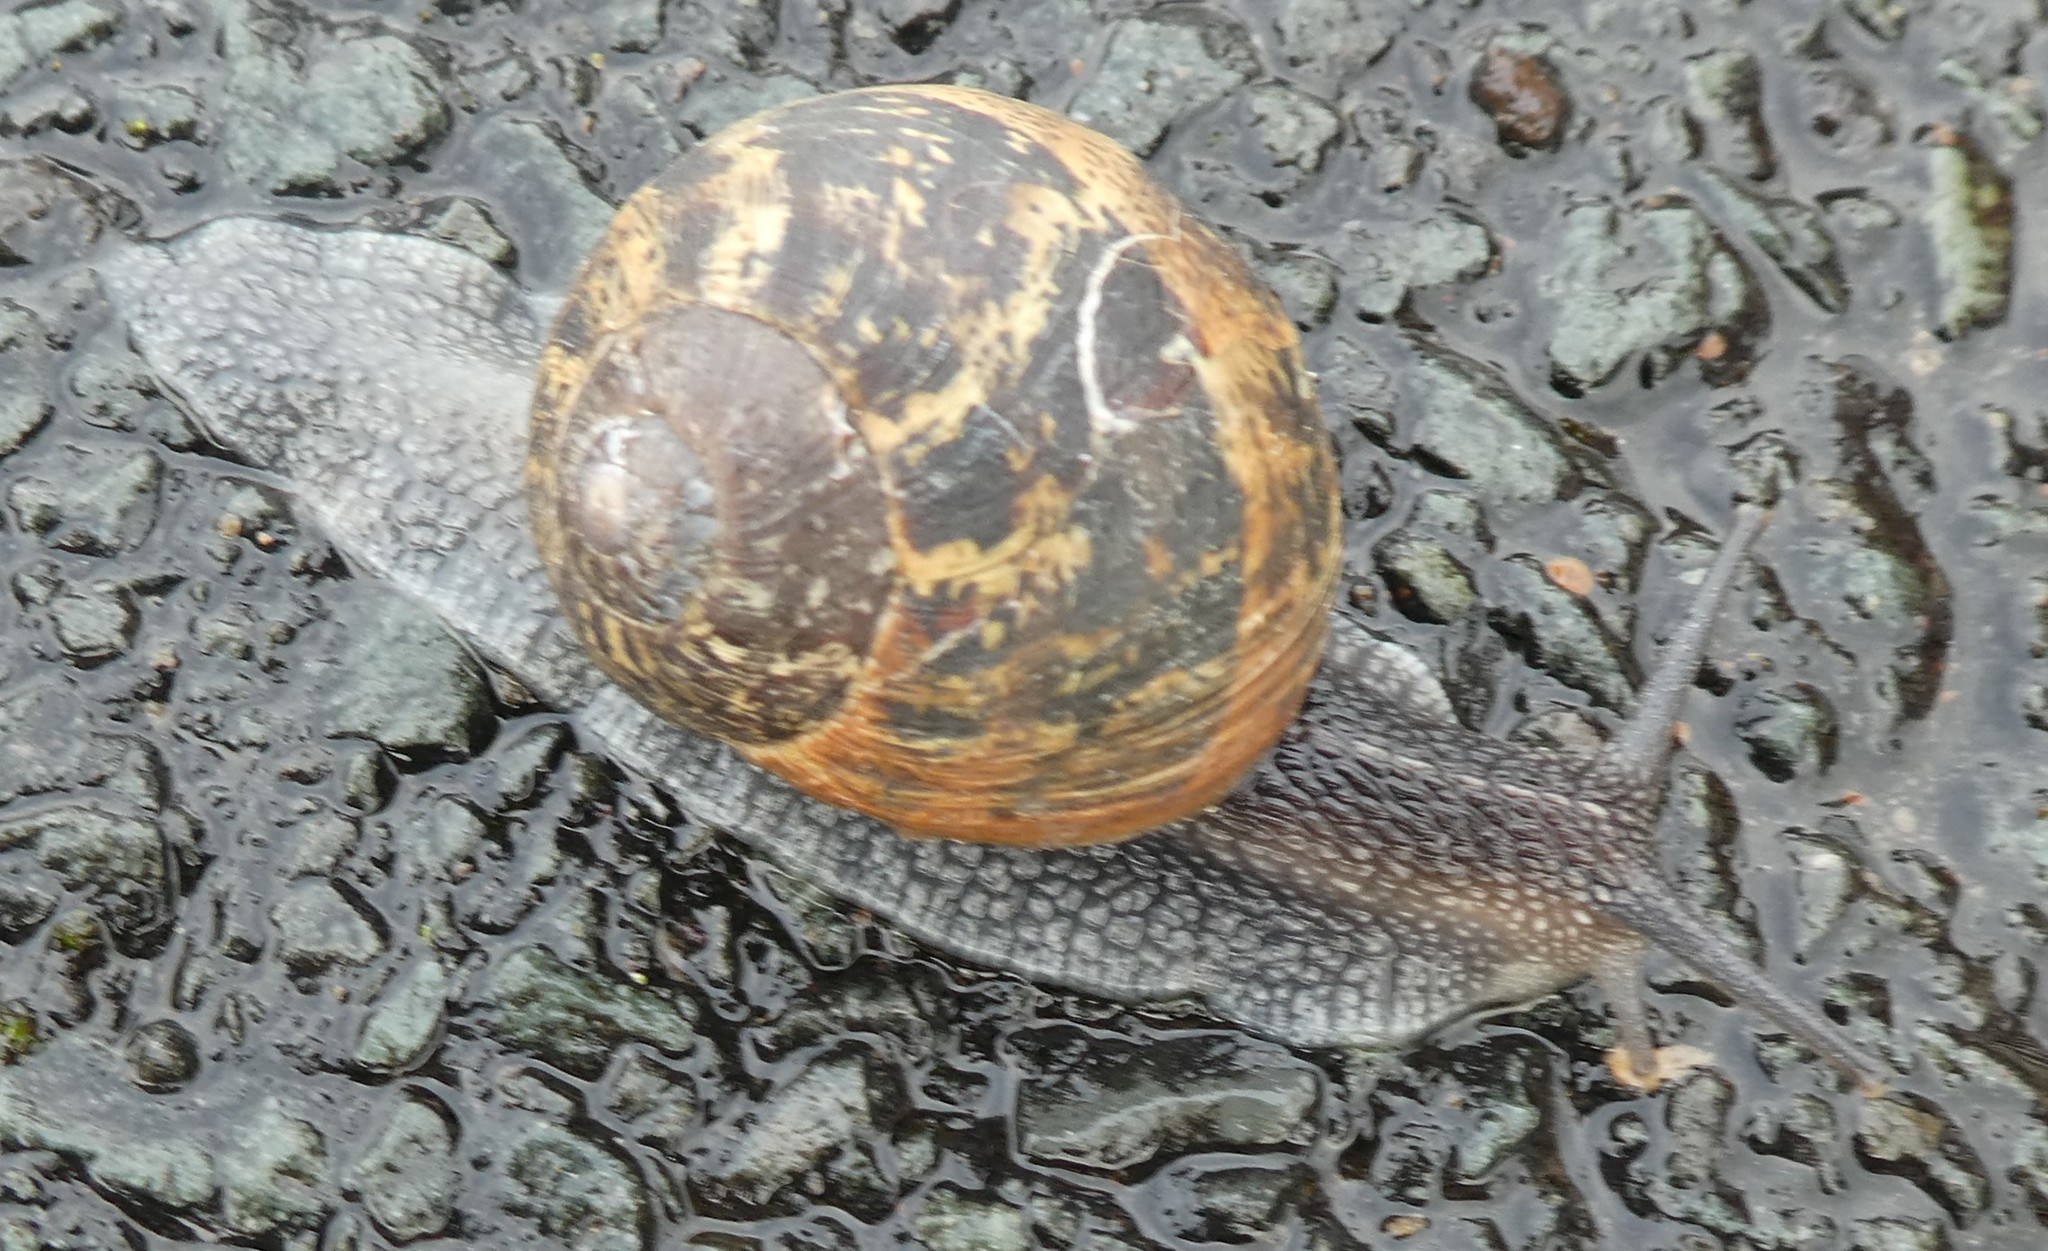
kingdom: Animalia
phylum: Mollusca
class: Gastropoda
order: Stylommatophora
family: Helicidae
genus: Cornu
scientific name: Cornu aspersum
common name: Brown garden snail
